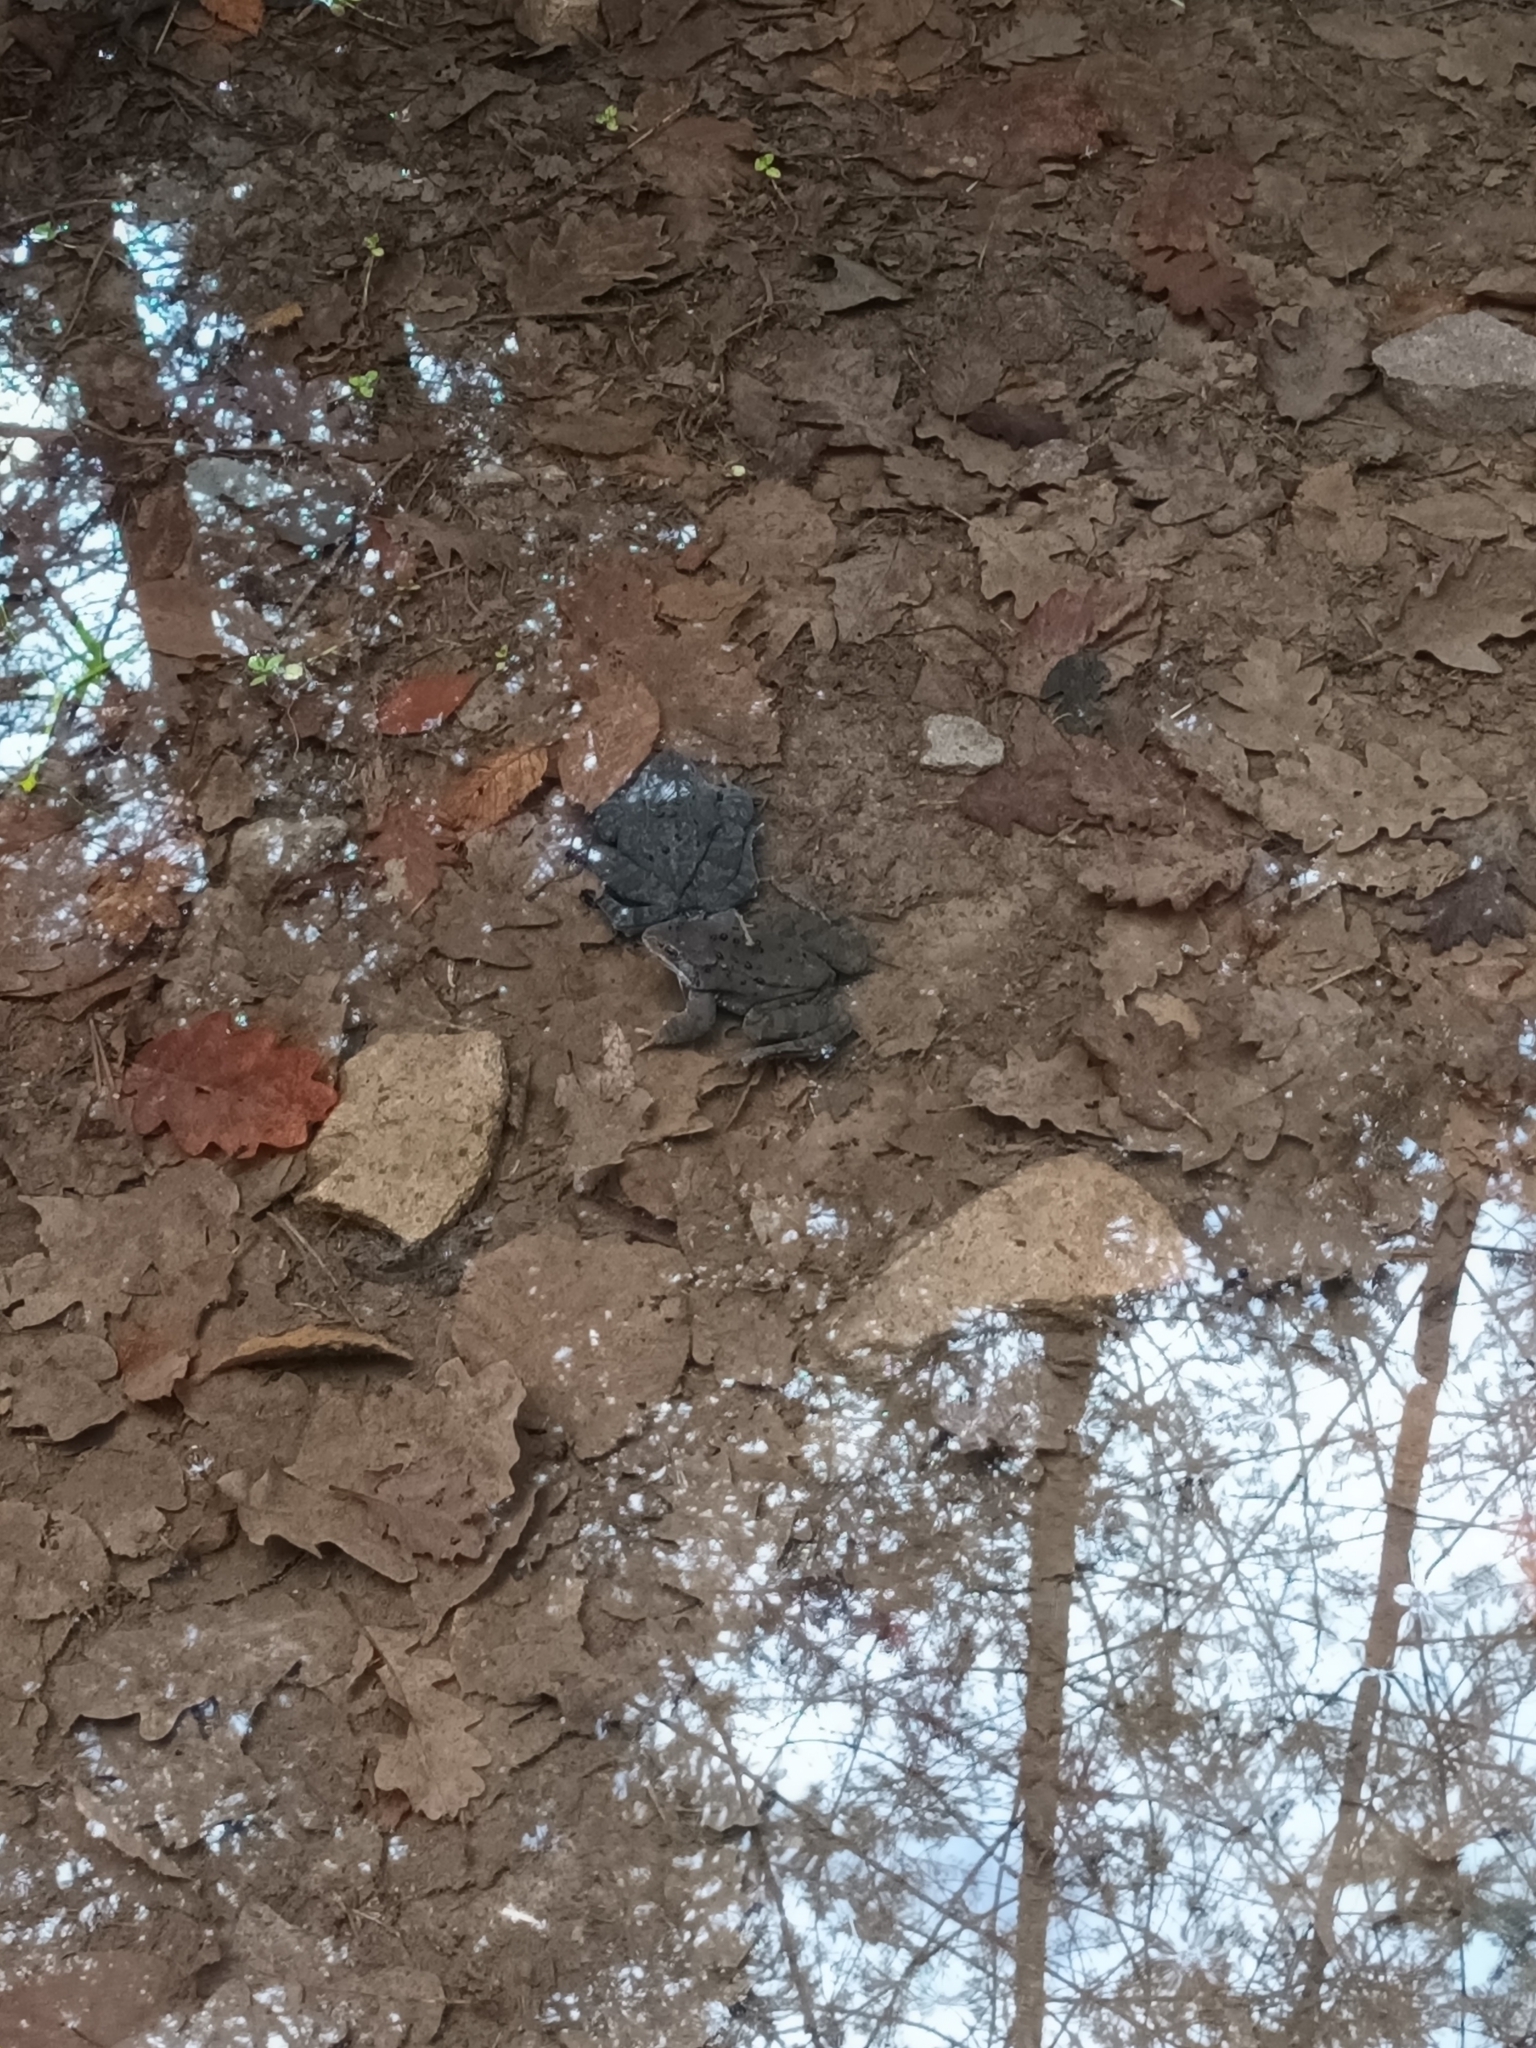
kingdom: Animalia
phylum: Chordata
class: Amphibia
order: Anura
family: Ranidae
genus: Rana
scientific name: Rana temporaria
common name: Common frog
